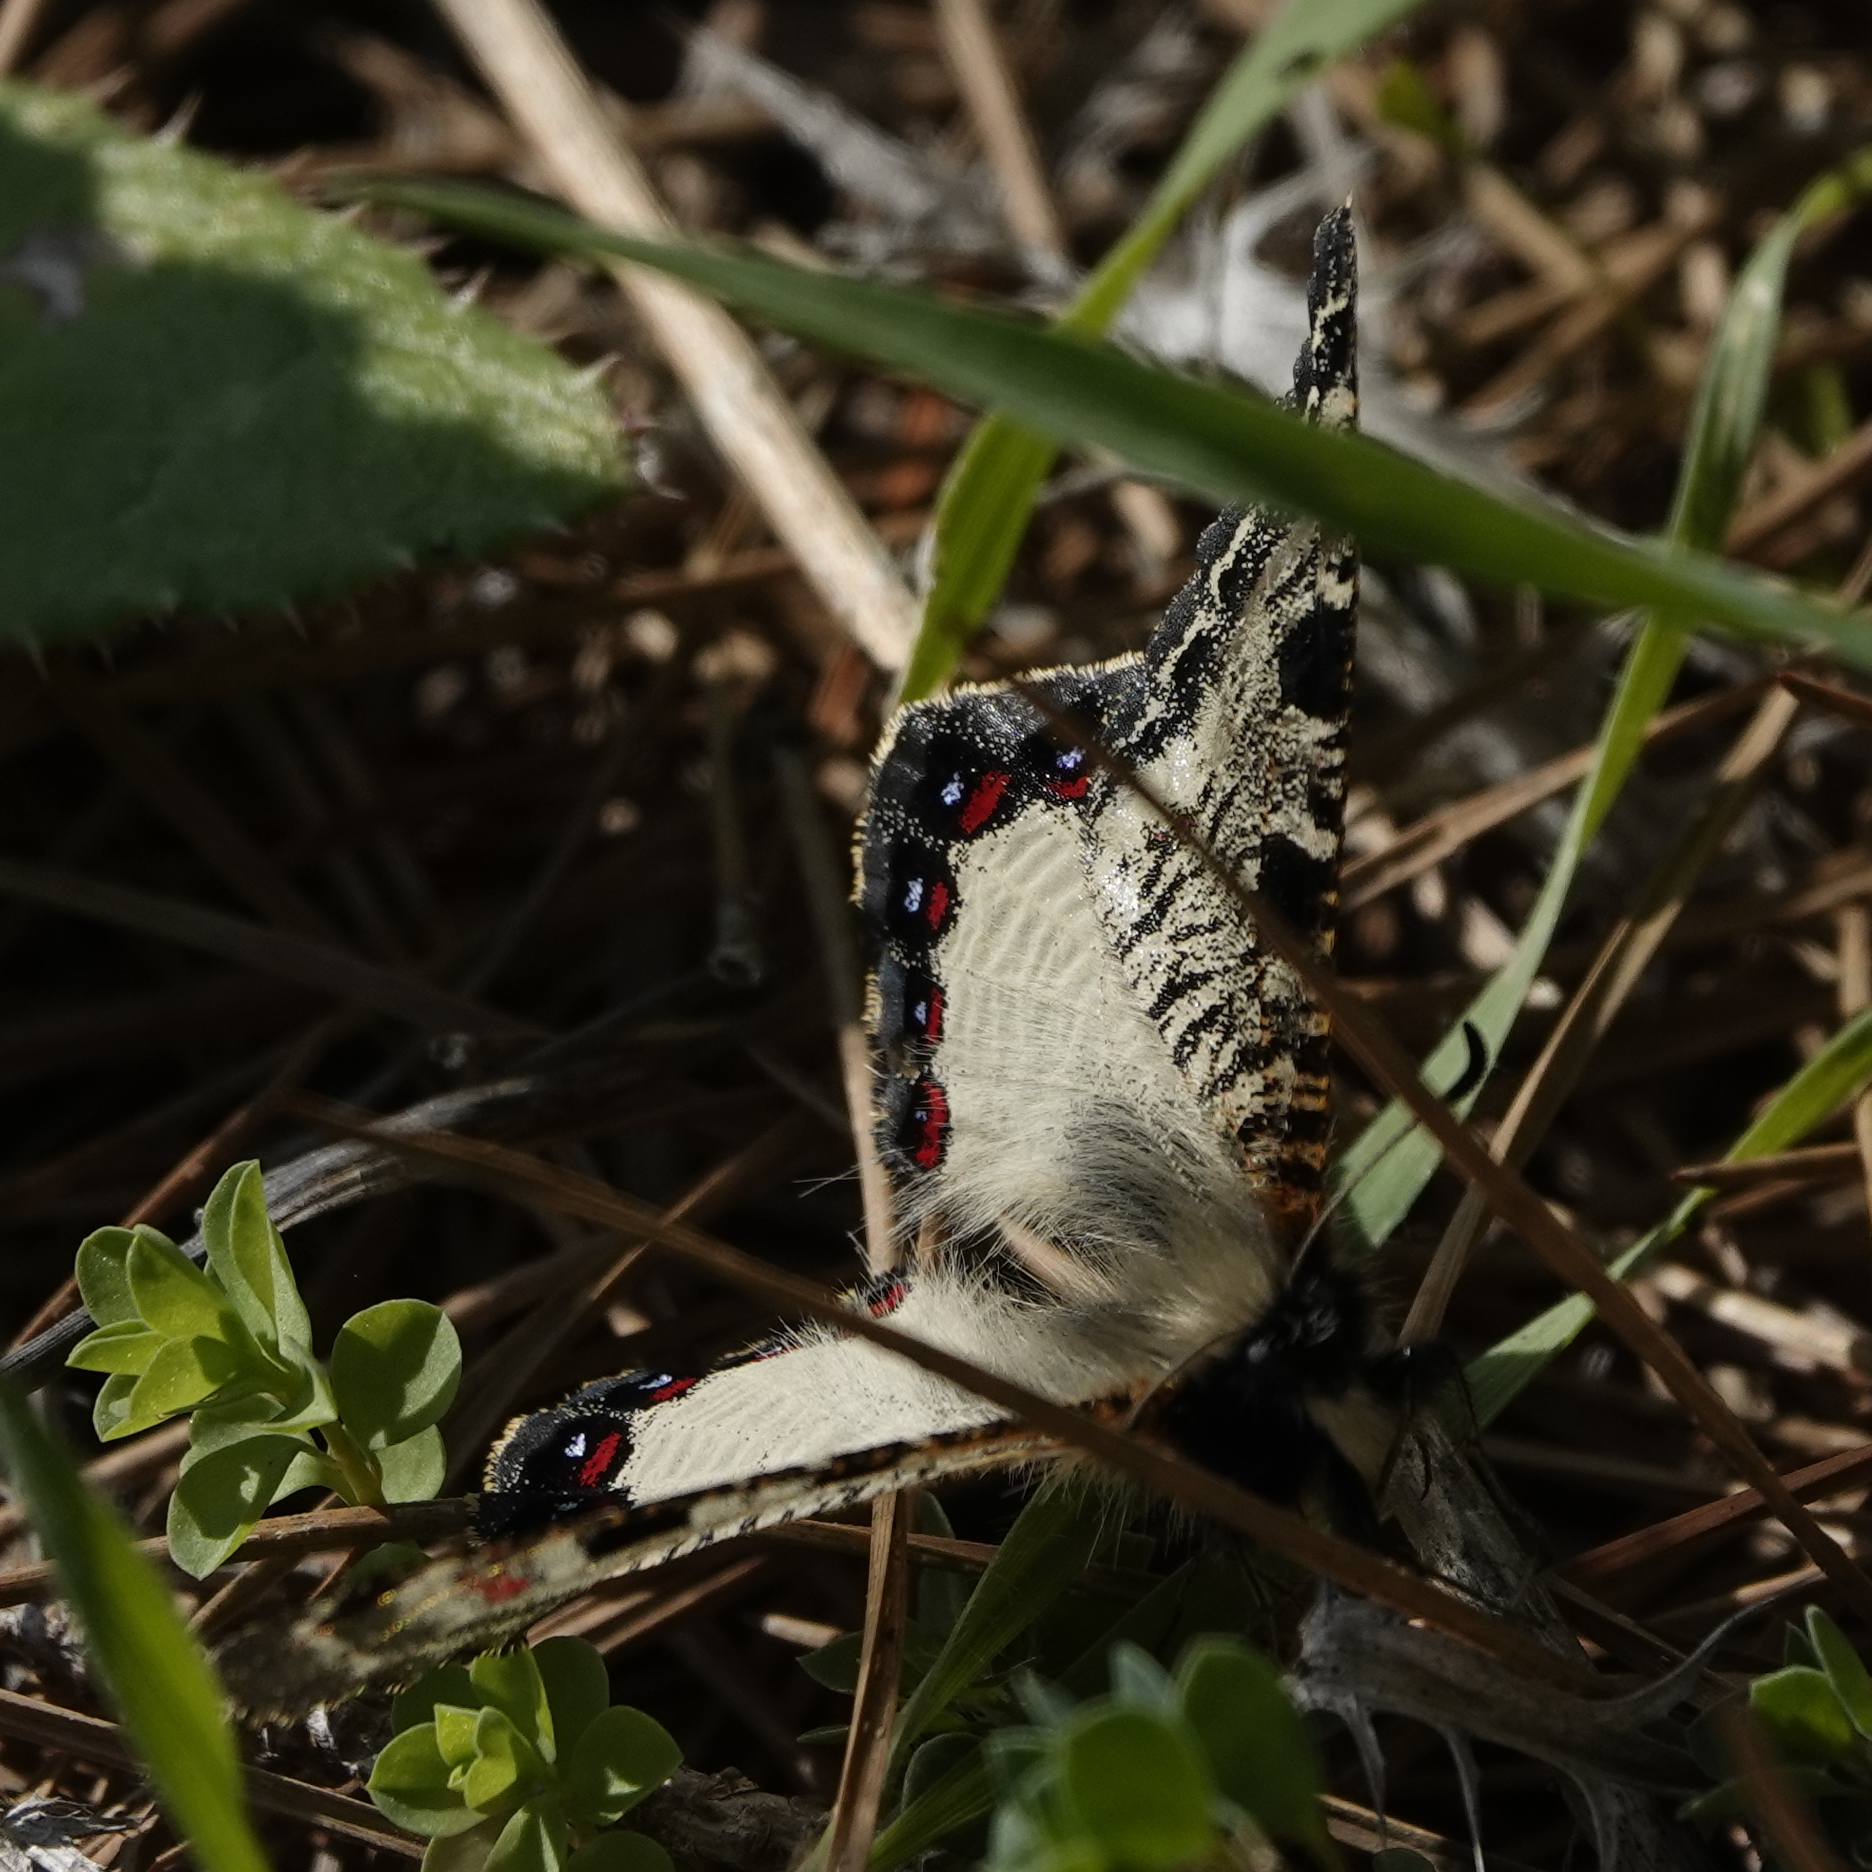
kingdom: Animalia
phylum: Arthropoda
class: Insecta
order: Lepidoptera
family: Papilionidae
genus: Archon
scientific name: Archon apollinus
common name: False apollo
